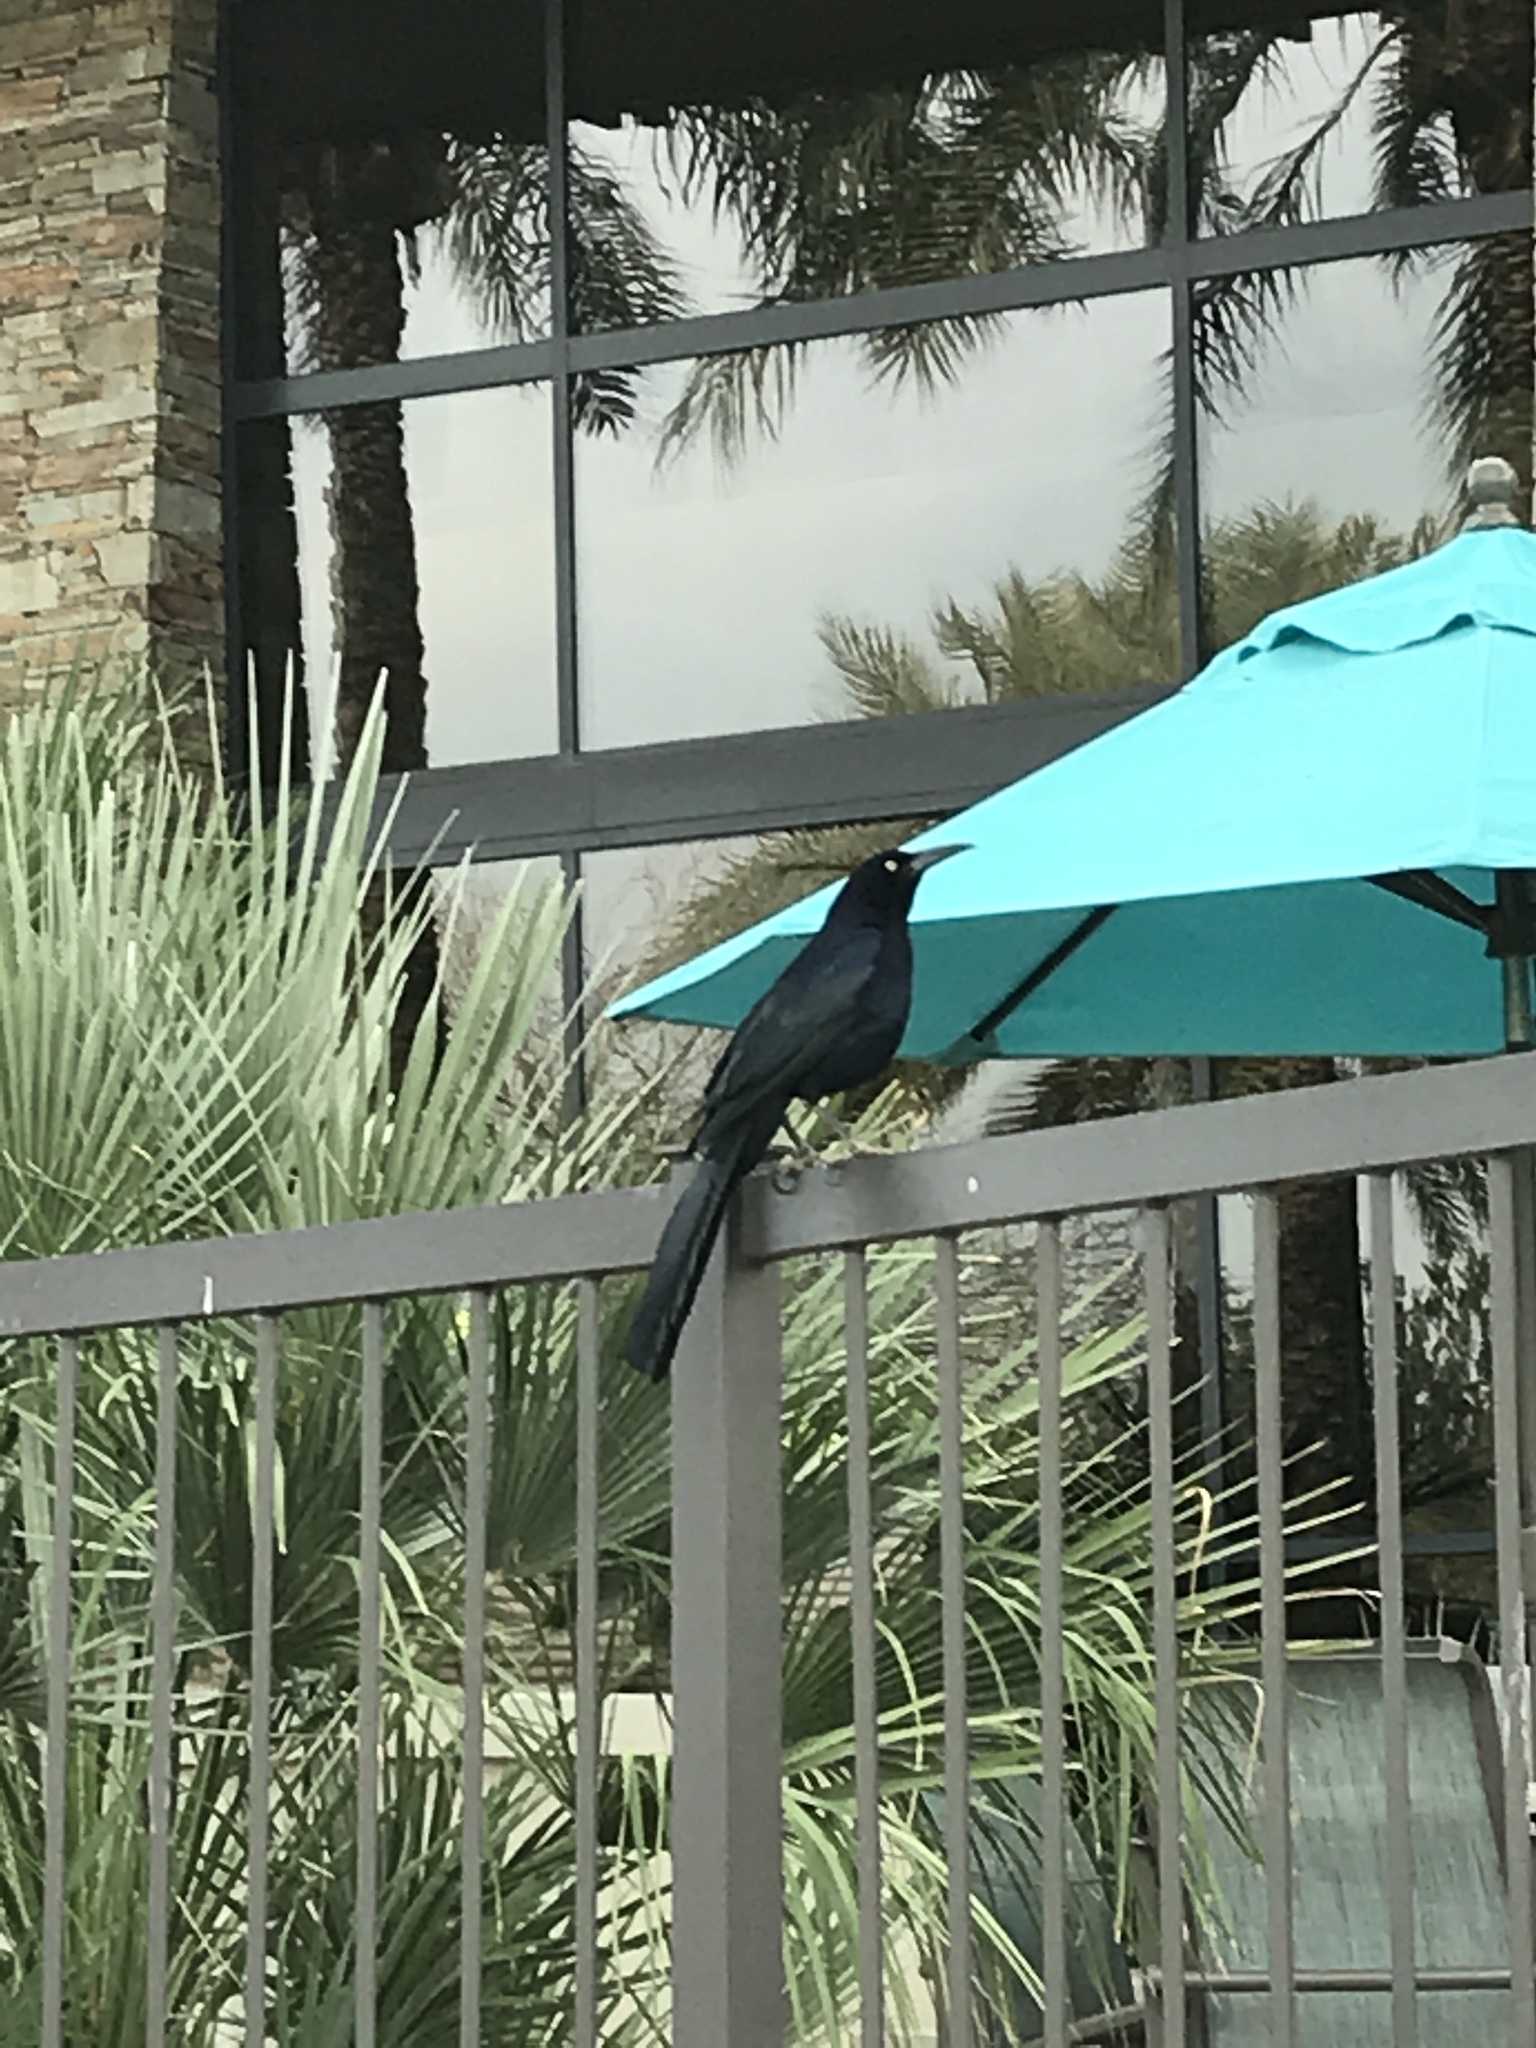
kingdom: Animalia
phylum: Chordata
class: Aves
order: Passeriformes
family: Icteridae
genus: Quiscalus
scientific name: Quiscalus mexicanus
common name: Great-tailed grackle
